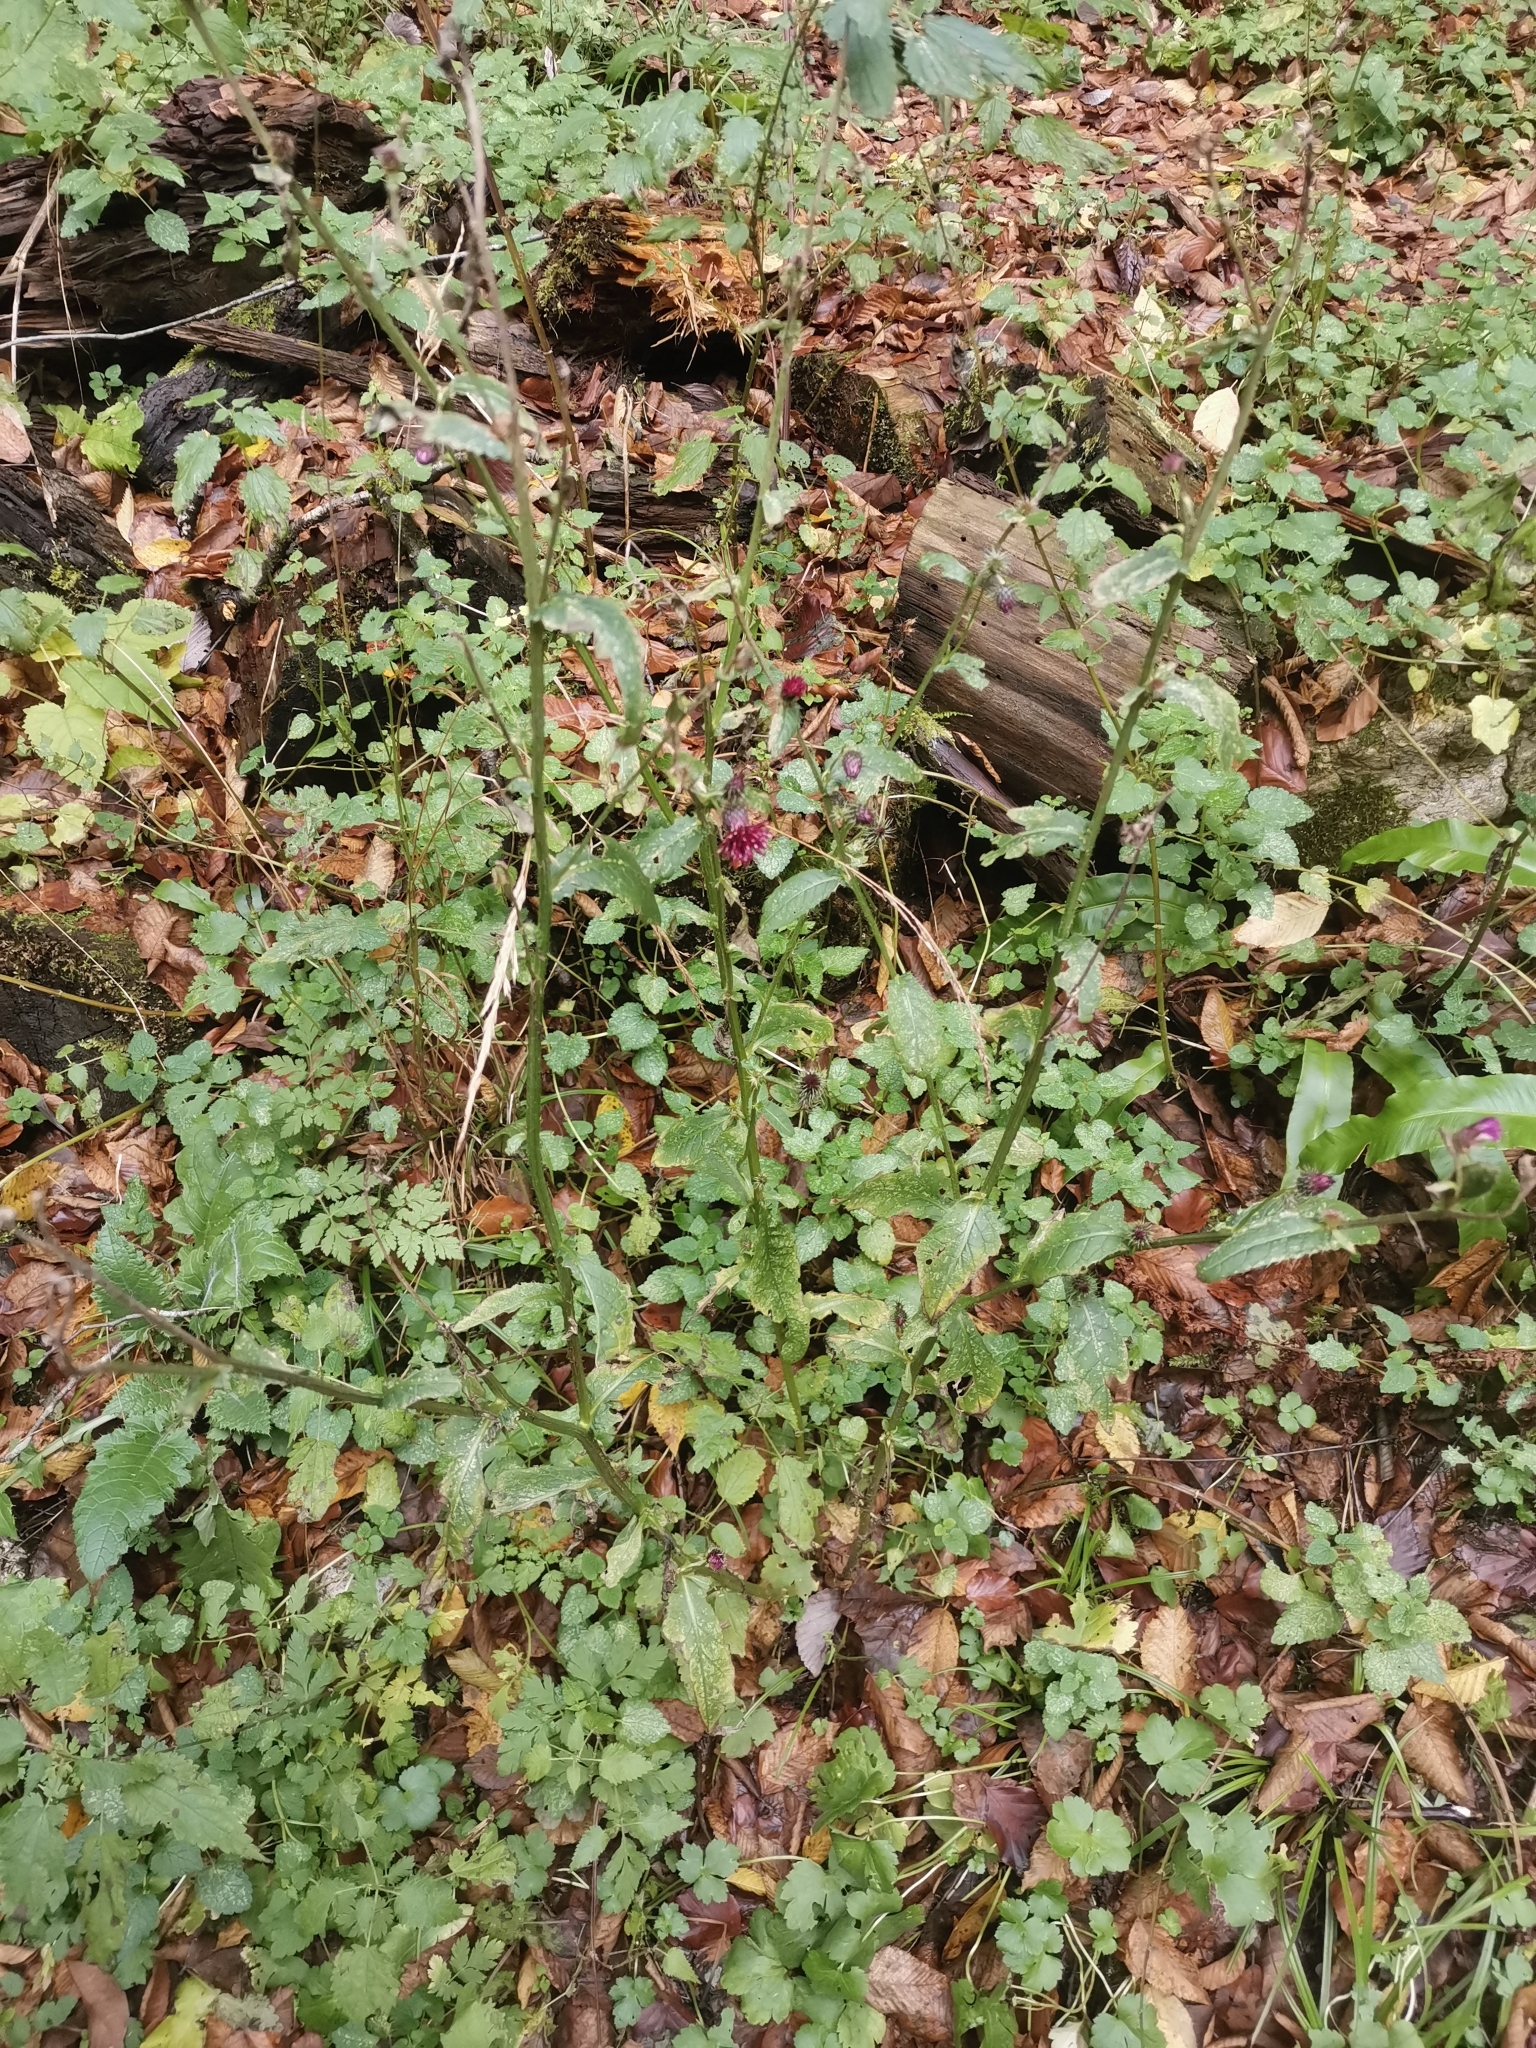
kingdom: Plantae
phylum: Tracheophyta
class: Magnoliopsida
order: Asterales
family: Asteraceae
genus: Carduus
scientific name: Carduus personata
